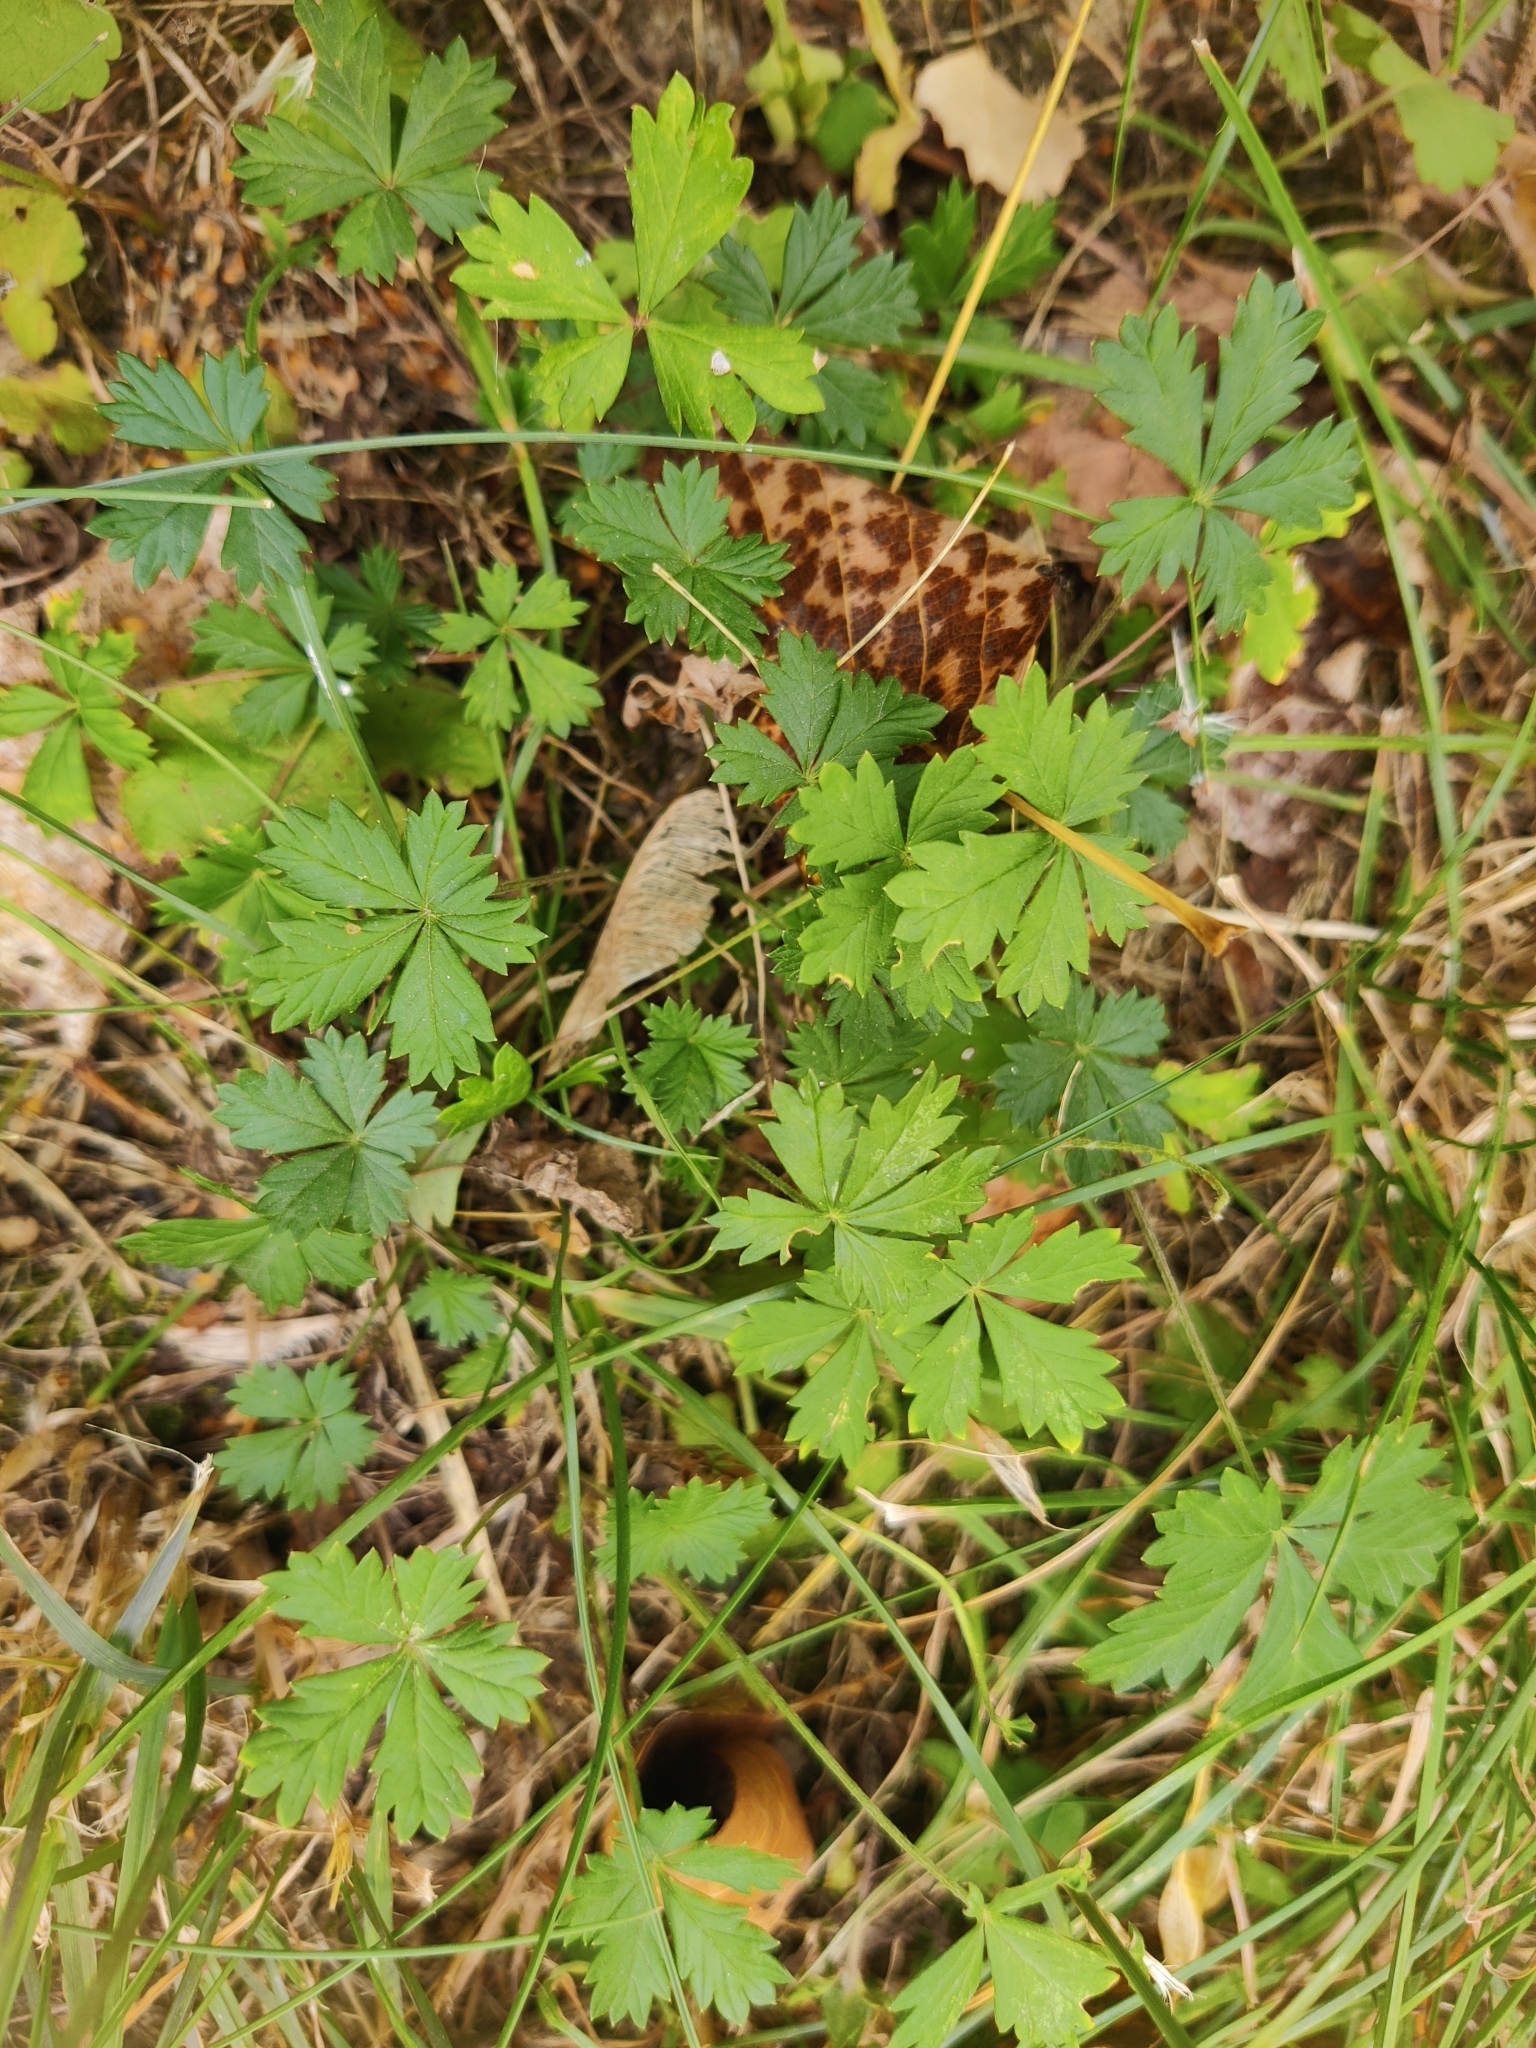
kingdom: Plantae
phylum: Tracheophyta
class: Magnoliopsida
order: Rosales
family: Rosaceae
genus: Potentilla
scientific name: Potentilla argentea
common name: Hoary cinquefoil
